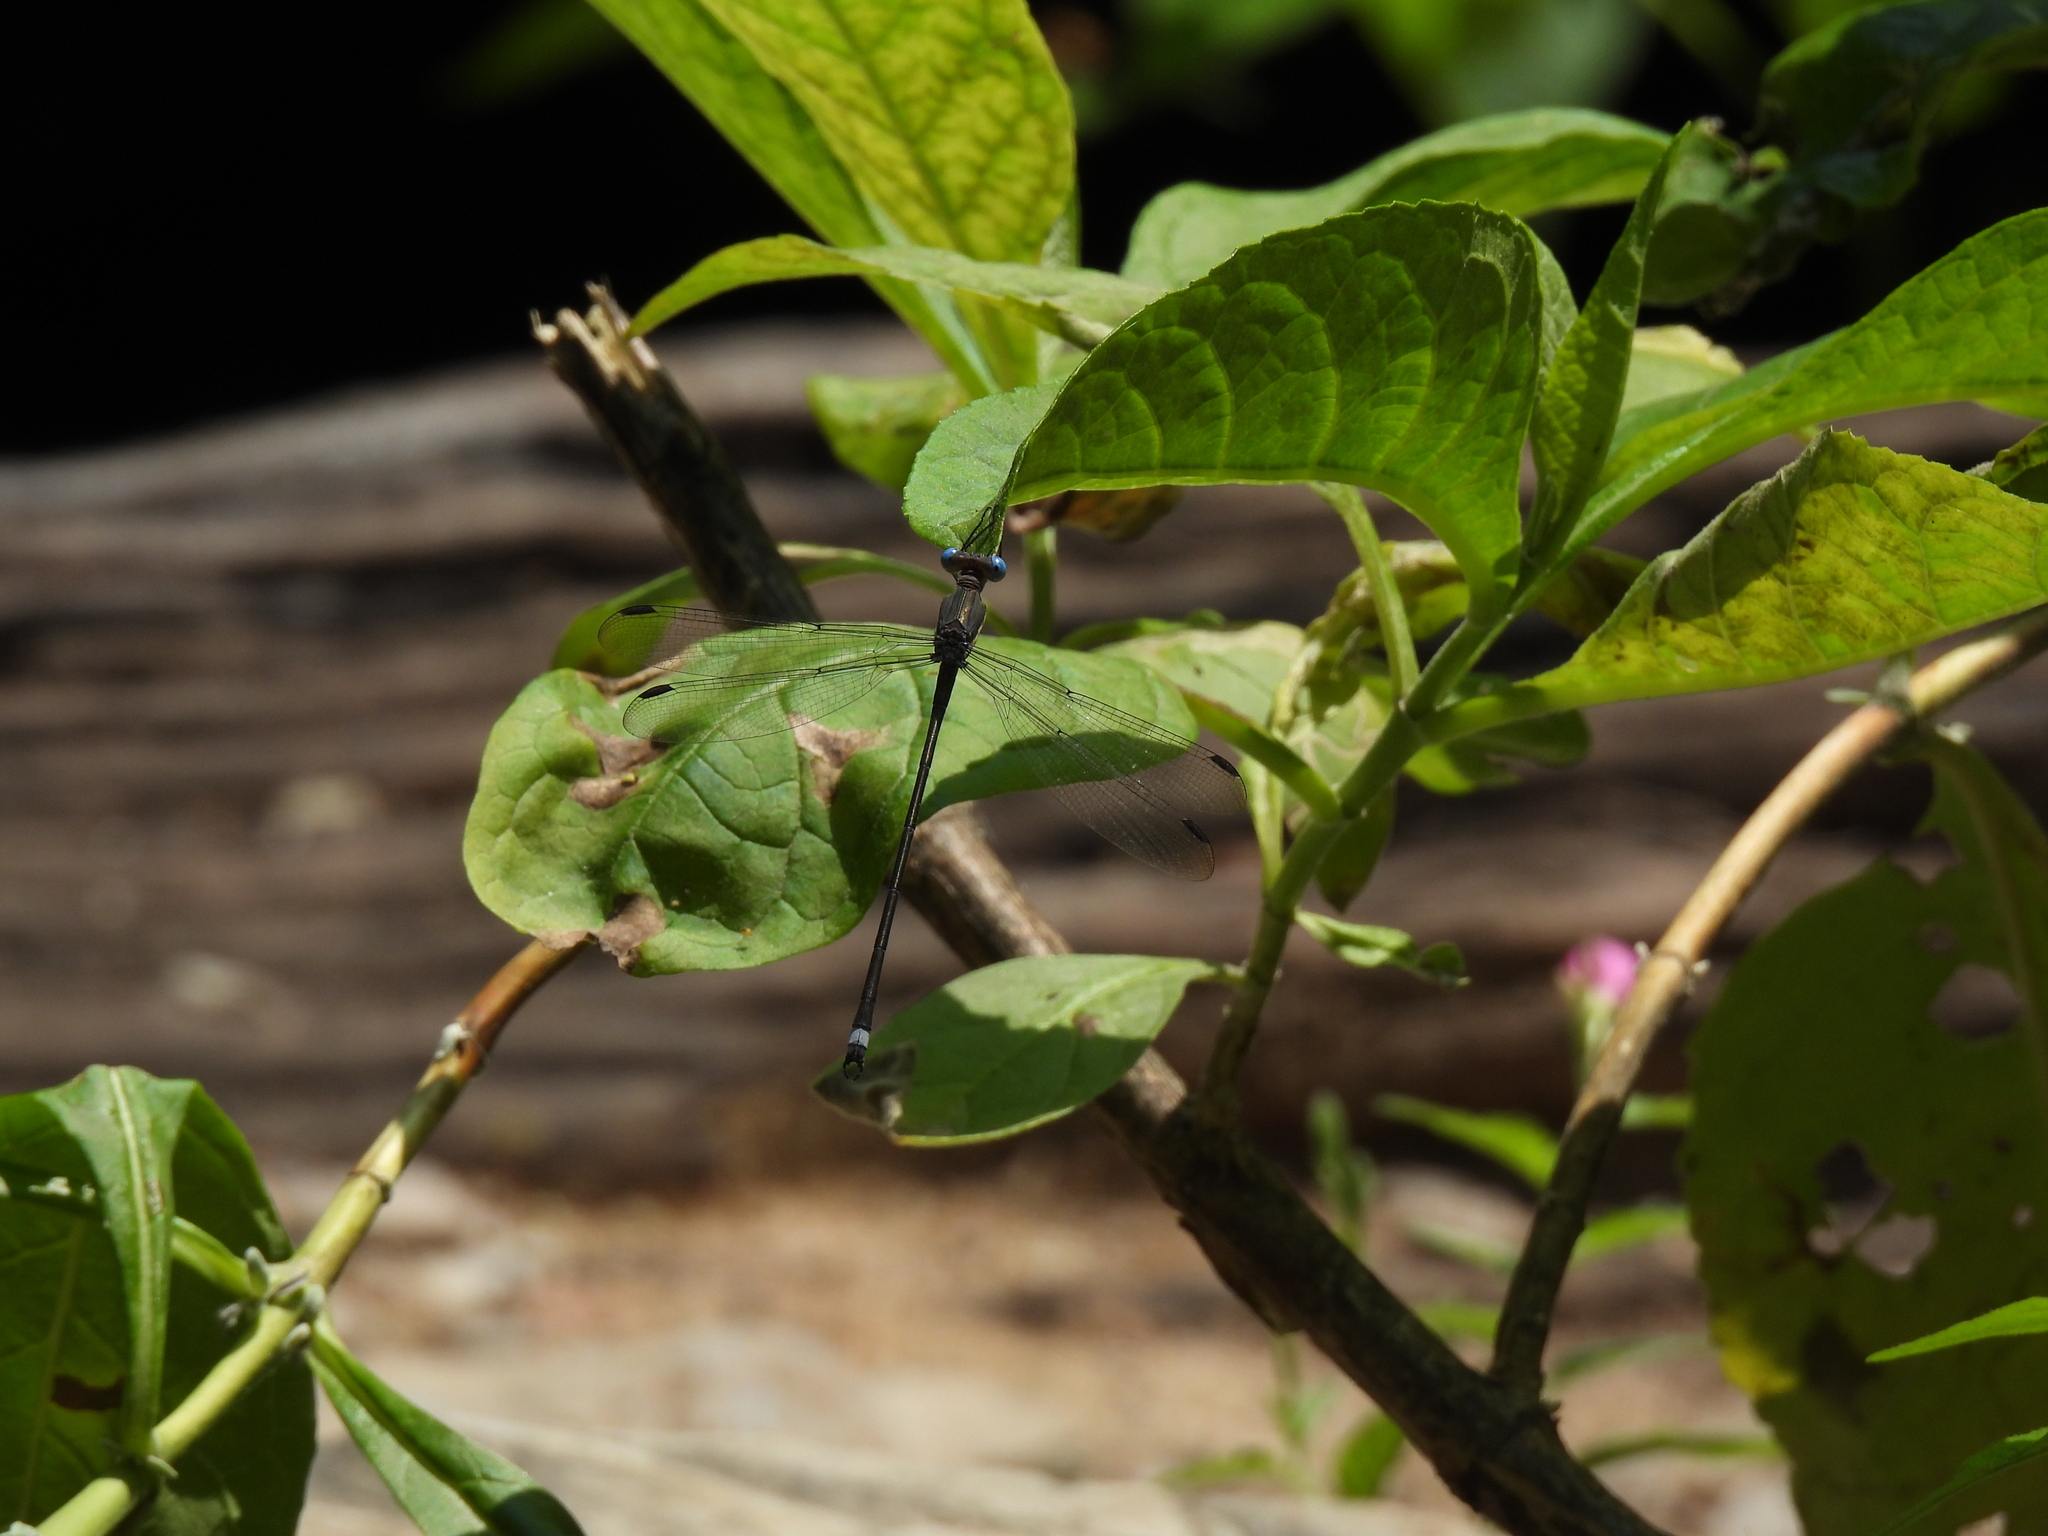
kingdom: Animalia
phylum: Arthropoda
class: Insecta
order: Odonata
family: Lestidae
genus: Archilestes
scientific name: Archilestes grandis
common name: Great spreadwing
